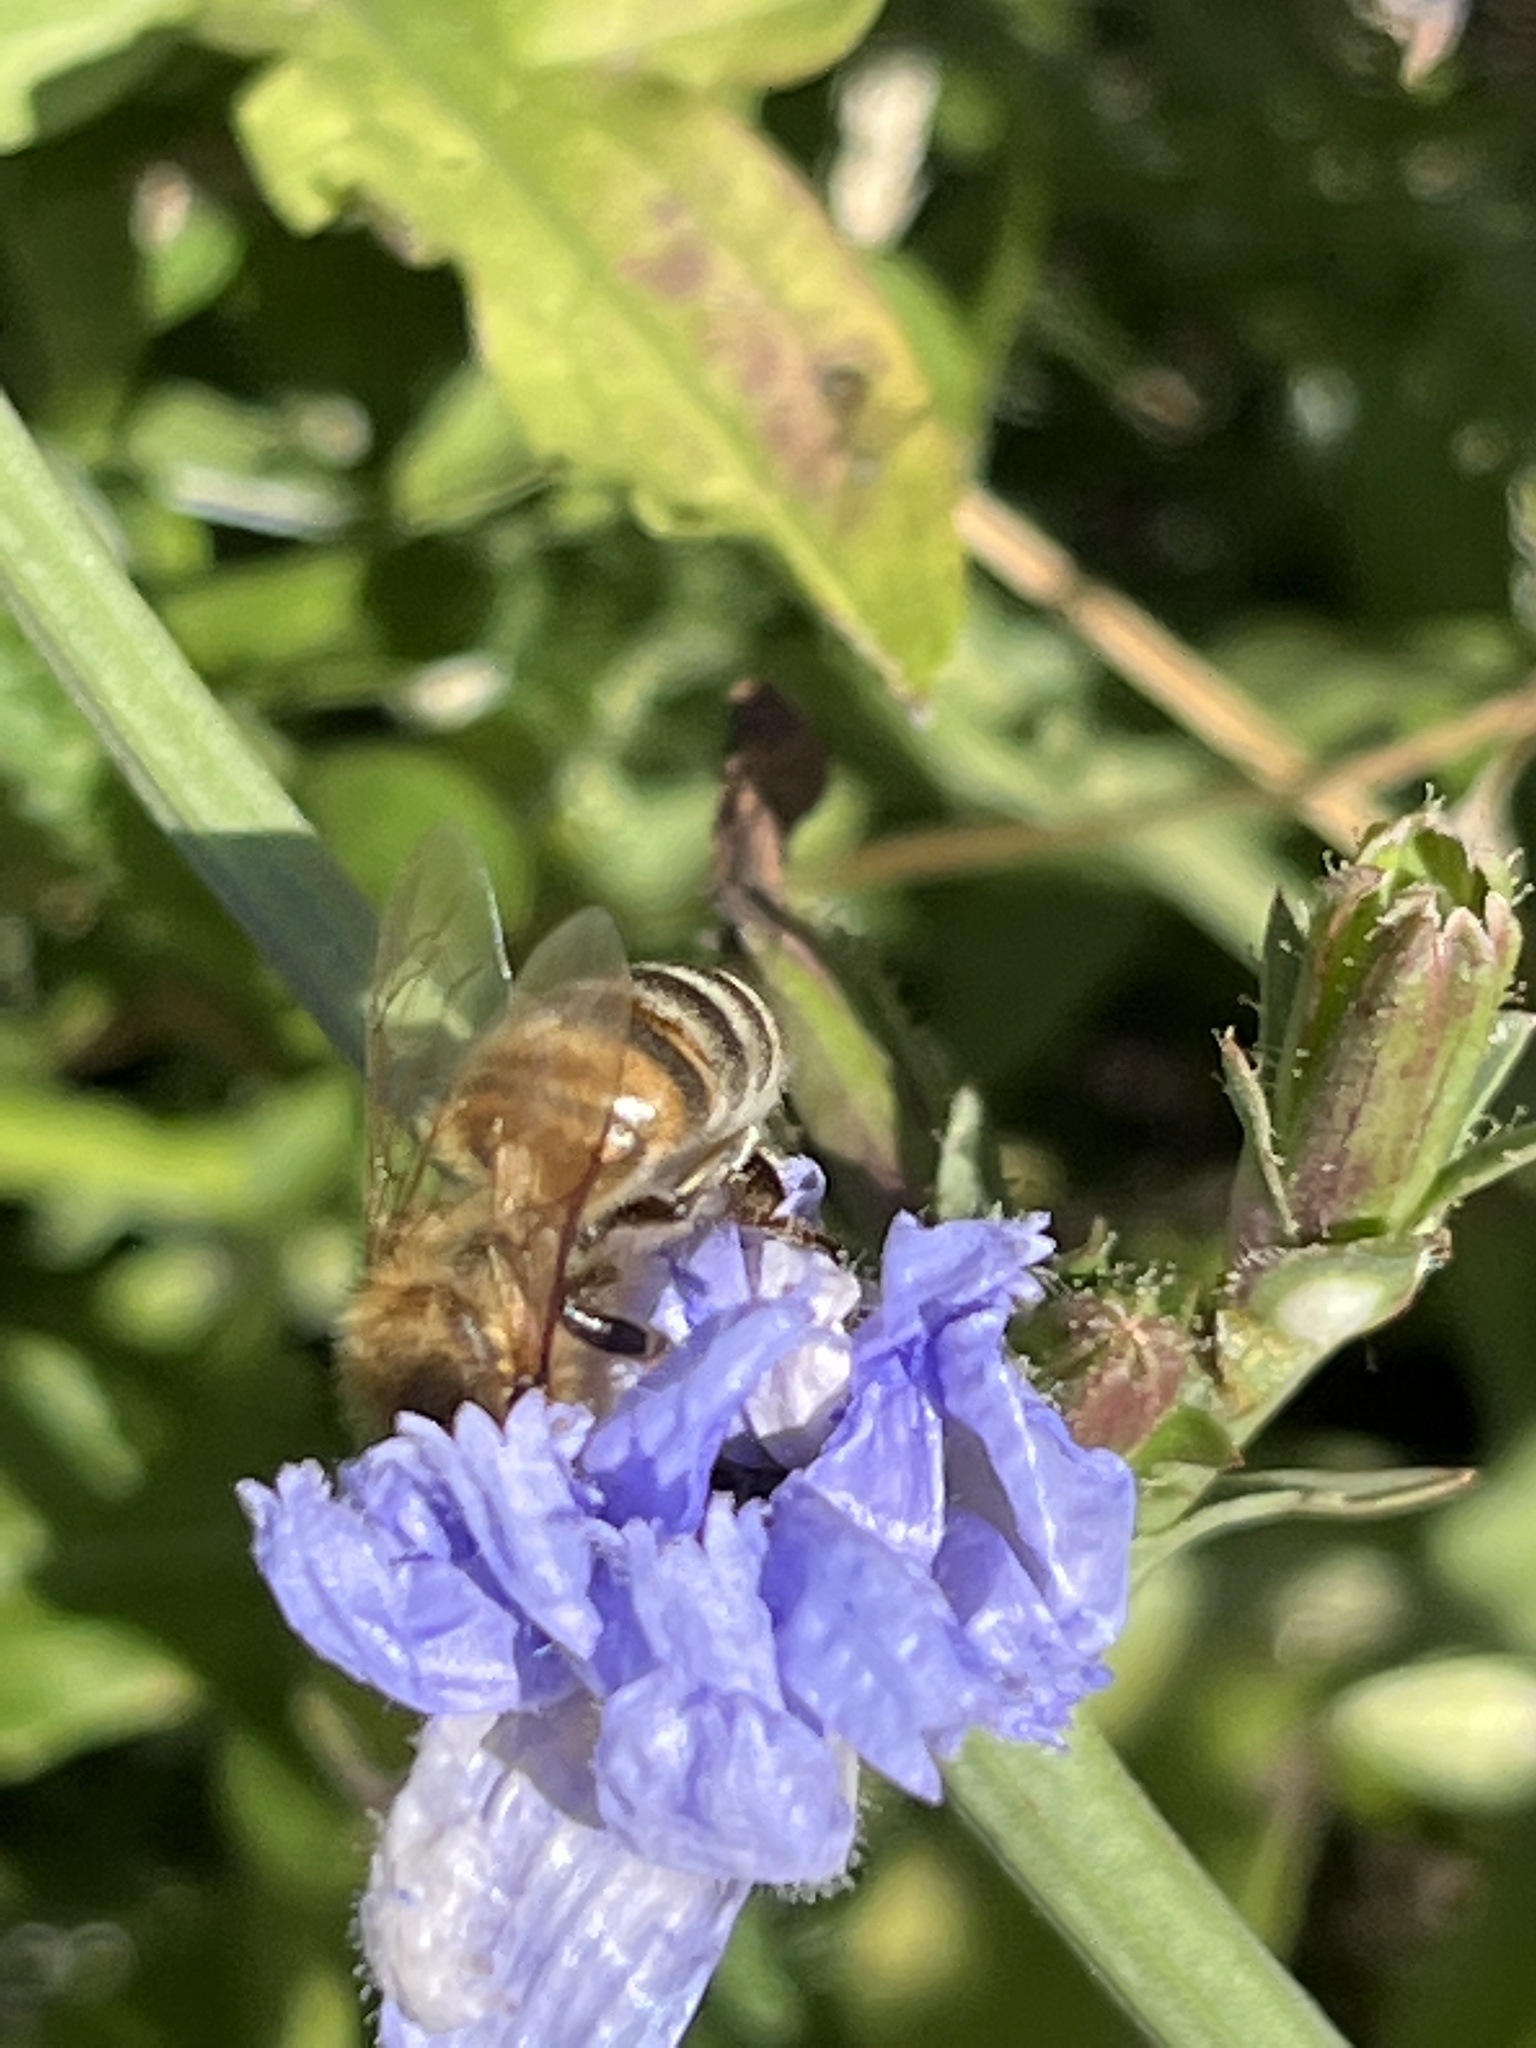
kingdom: Animalia
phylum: Arthropoda
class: Insecta
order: Hymenoptera
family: Apidae
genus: Apis
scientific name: Apis mellifera
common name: Honey bee
